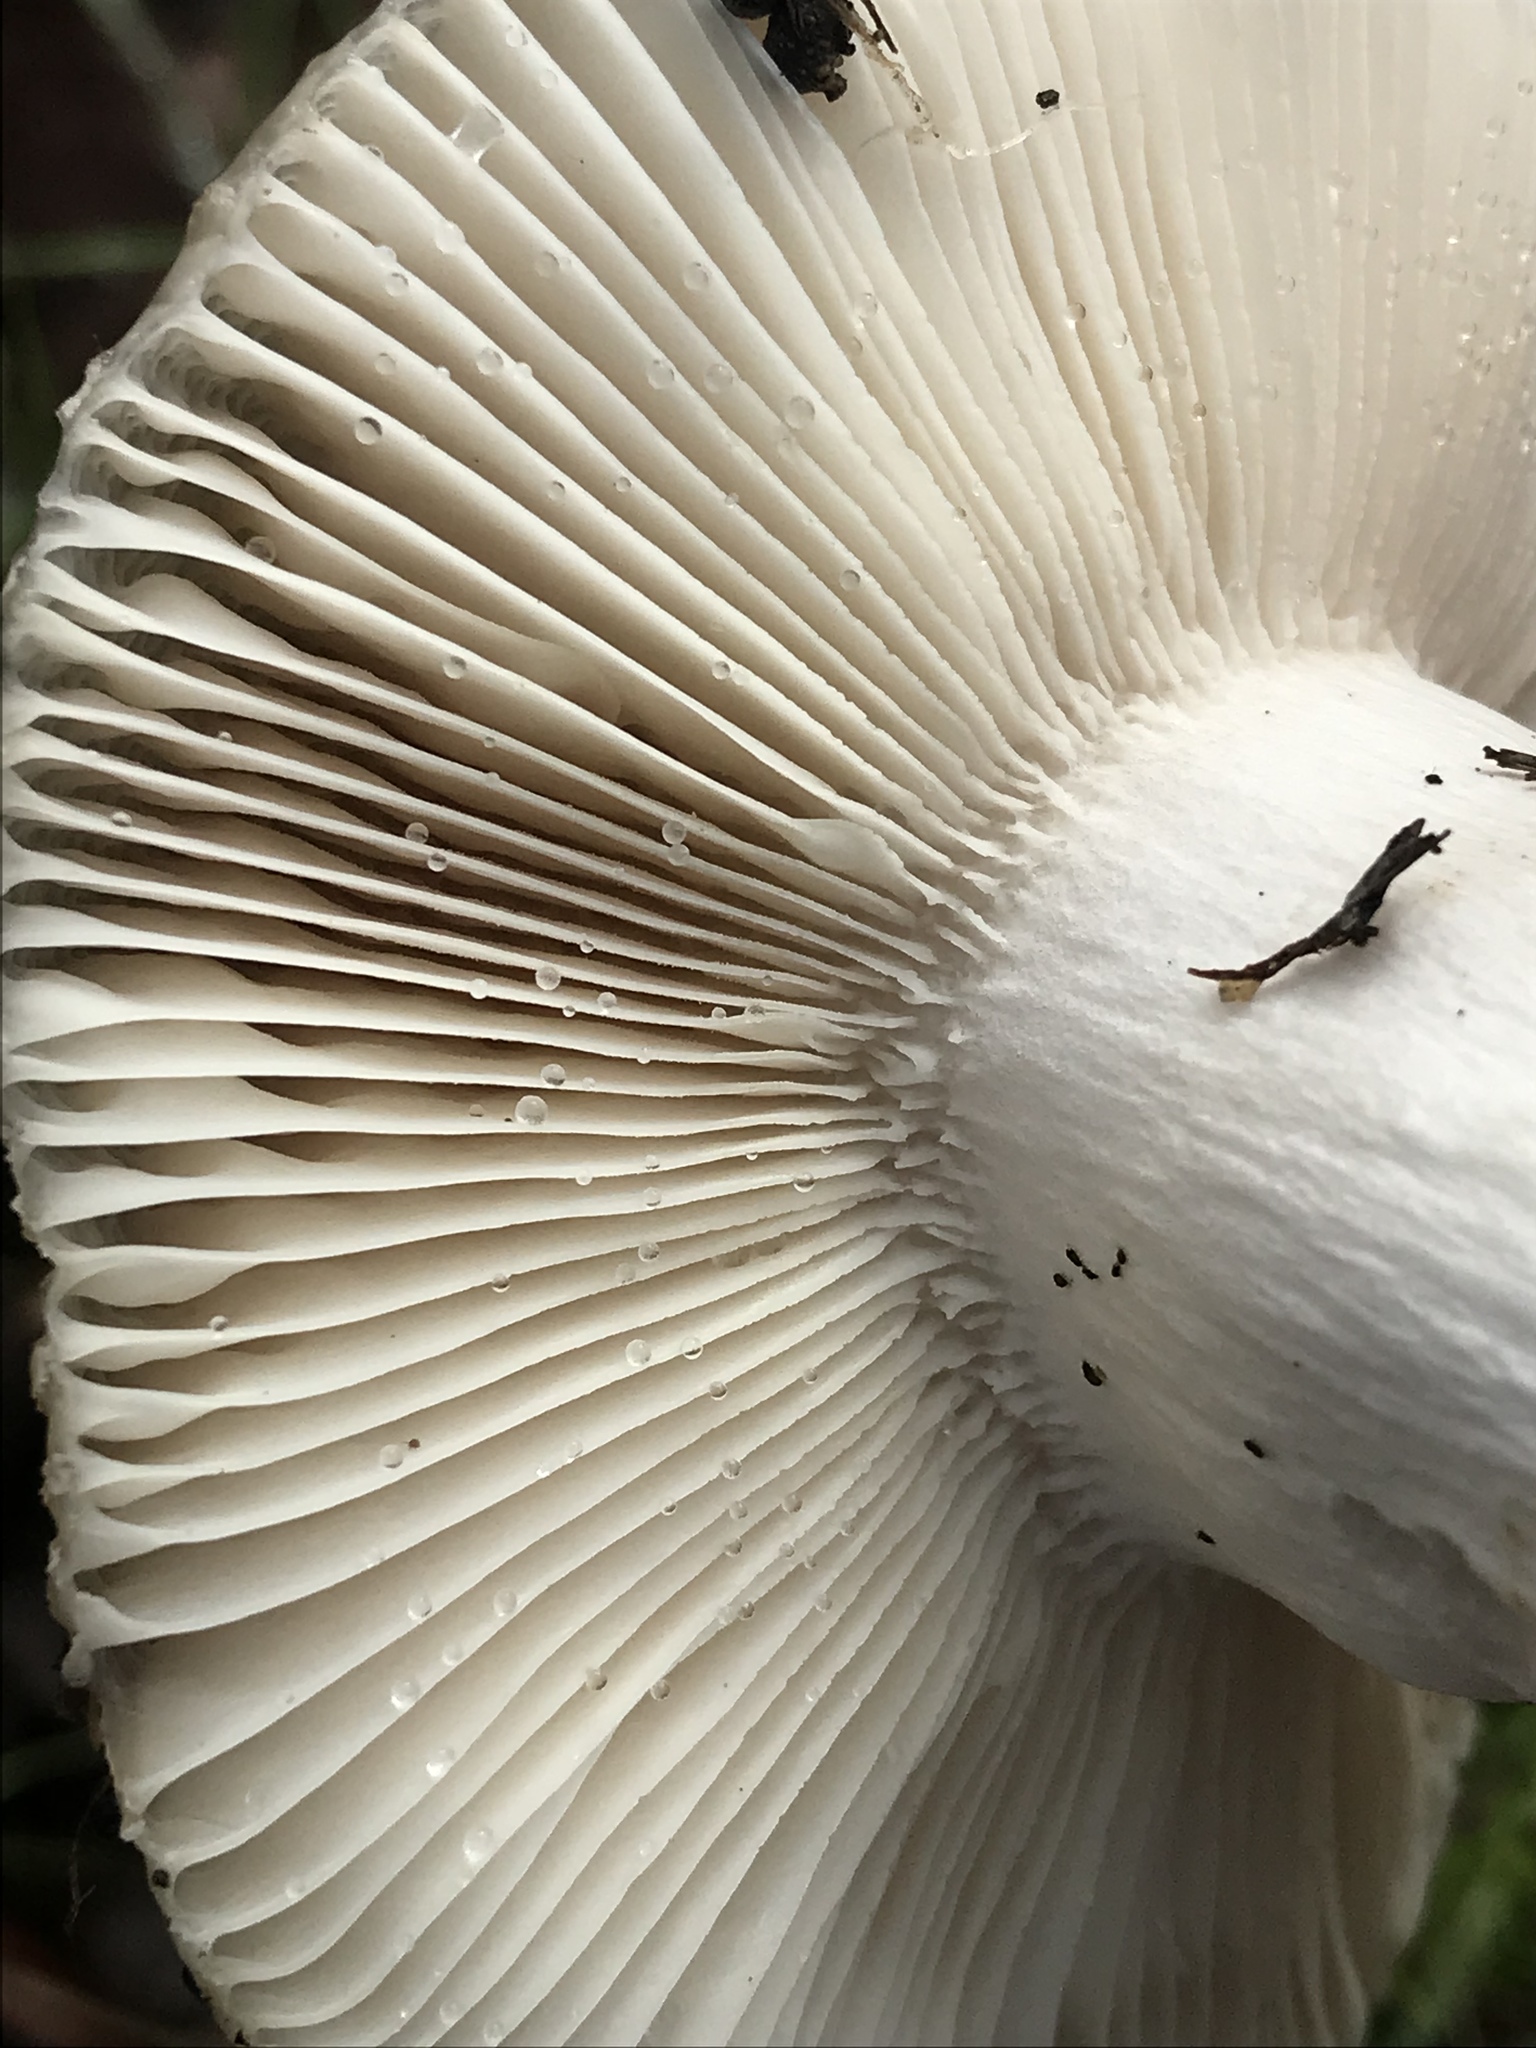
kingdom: Fungi
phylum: Basidiomycota
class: Agaricomycetes
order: Russulales
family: Russulaceae
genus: Russula
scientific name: Russula cerolens
